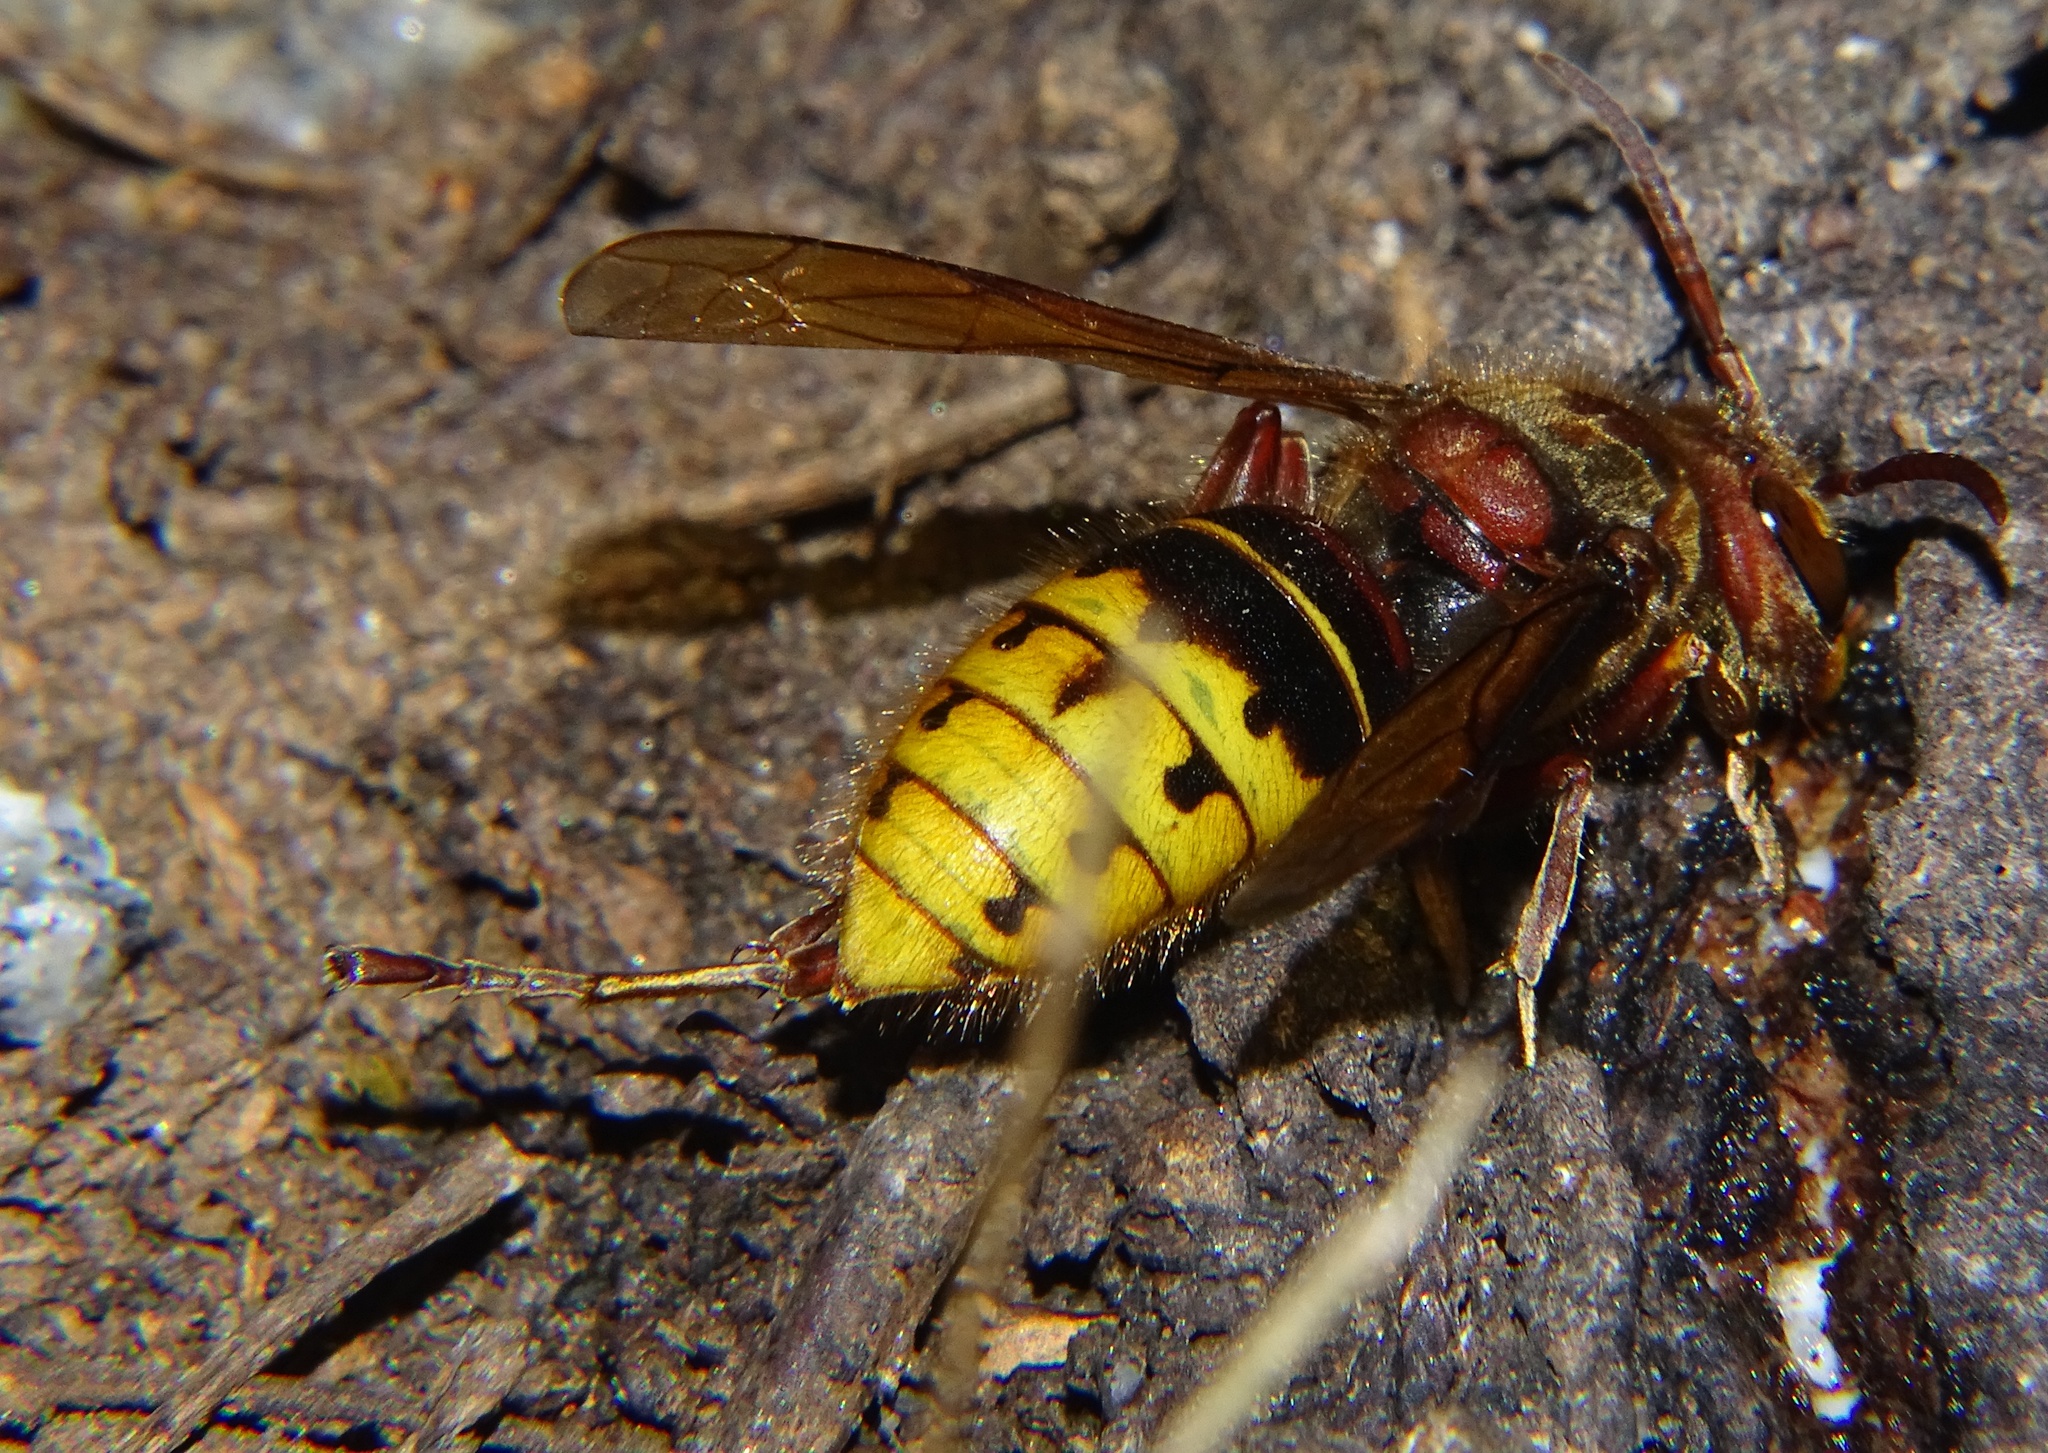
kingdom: Animalia
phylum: Arthropoda
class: Insecta
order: Hymenoptera
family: Vespidae
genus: Vespa
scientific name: Vespa crabro
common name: Hornet
